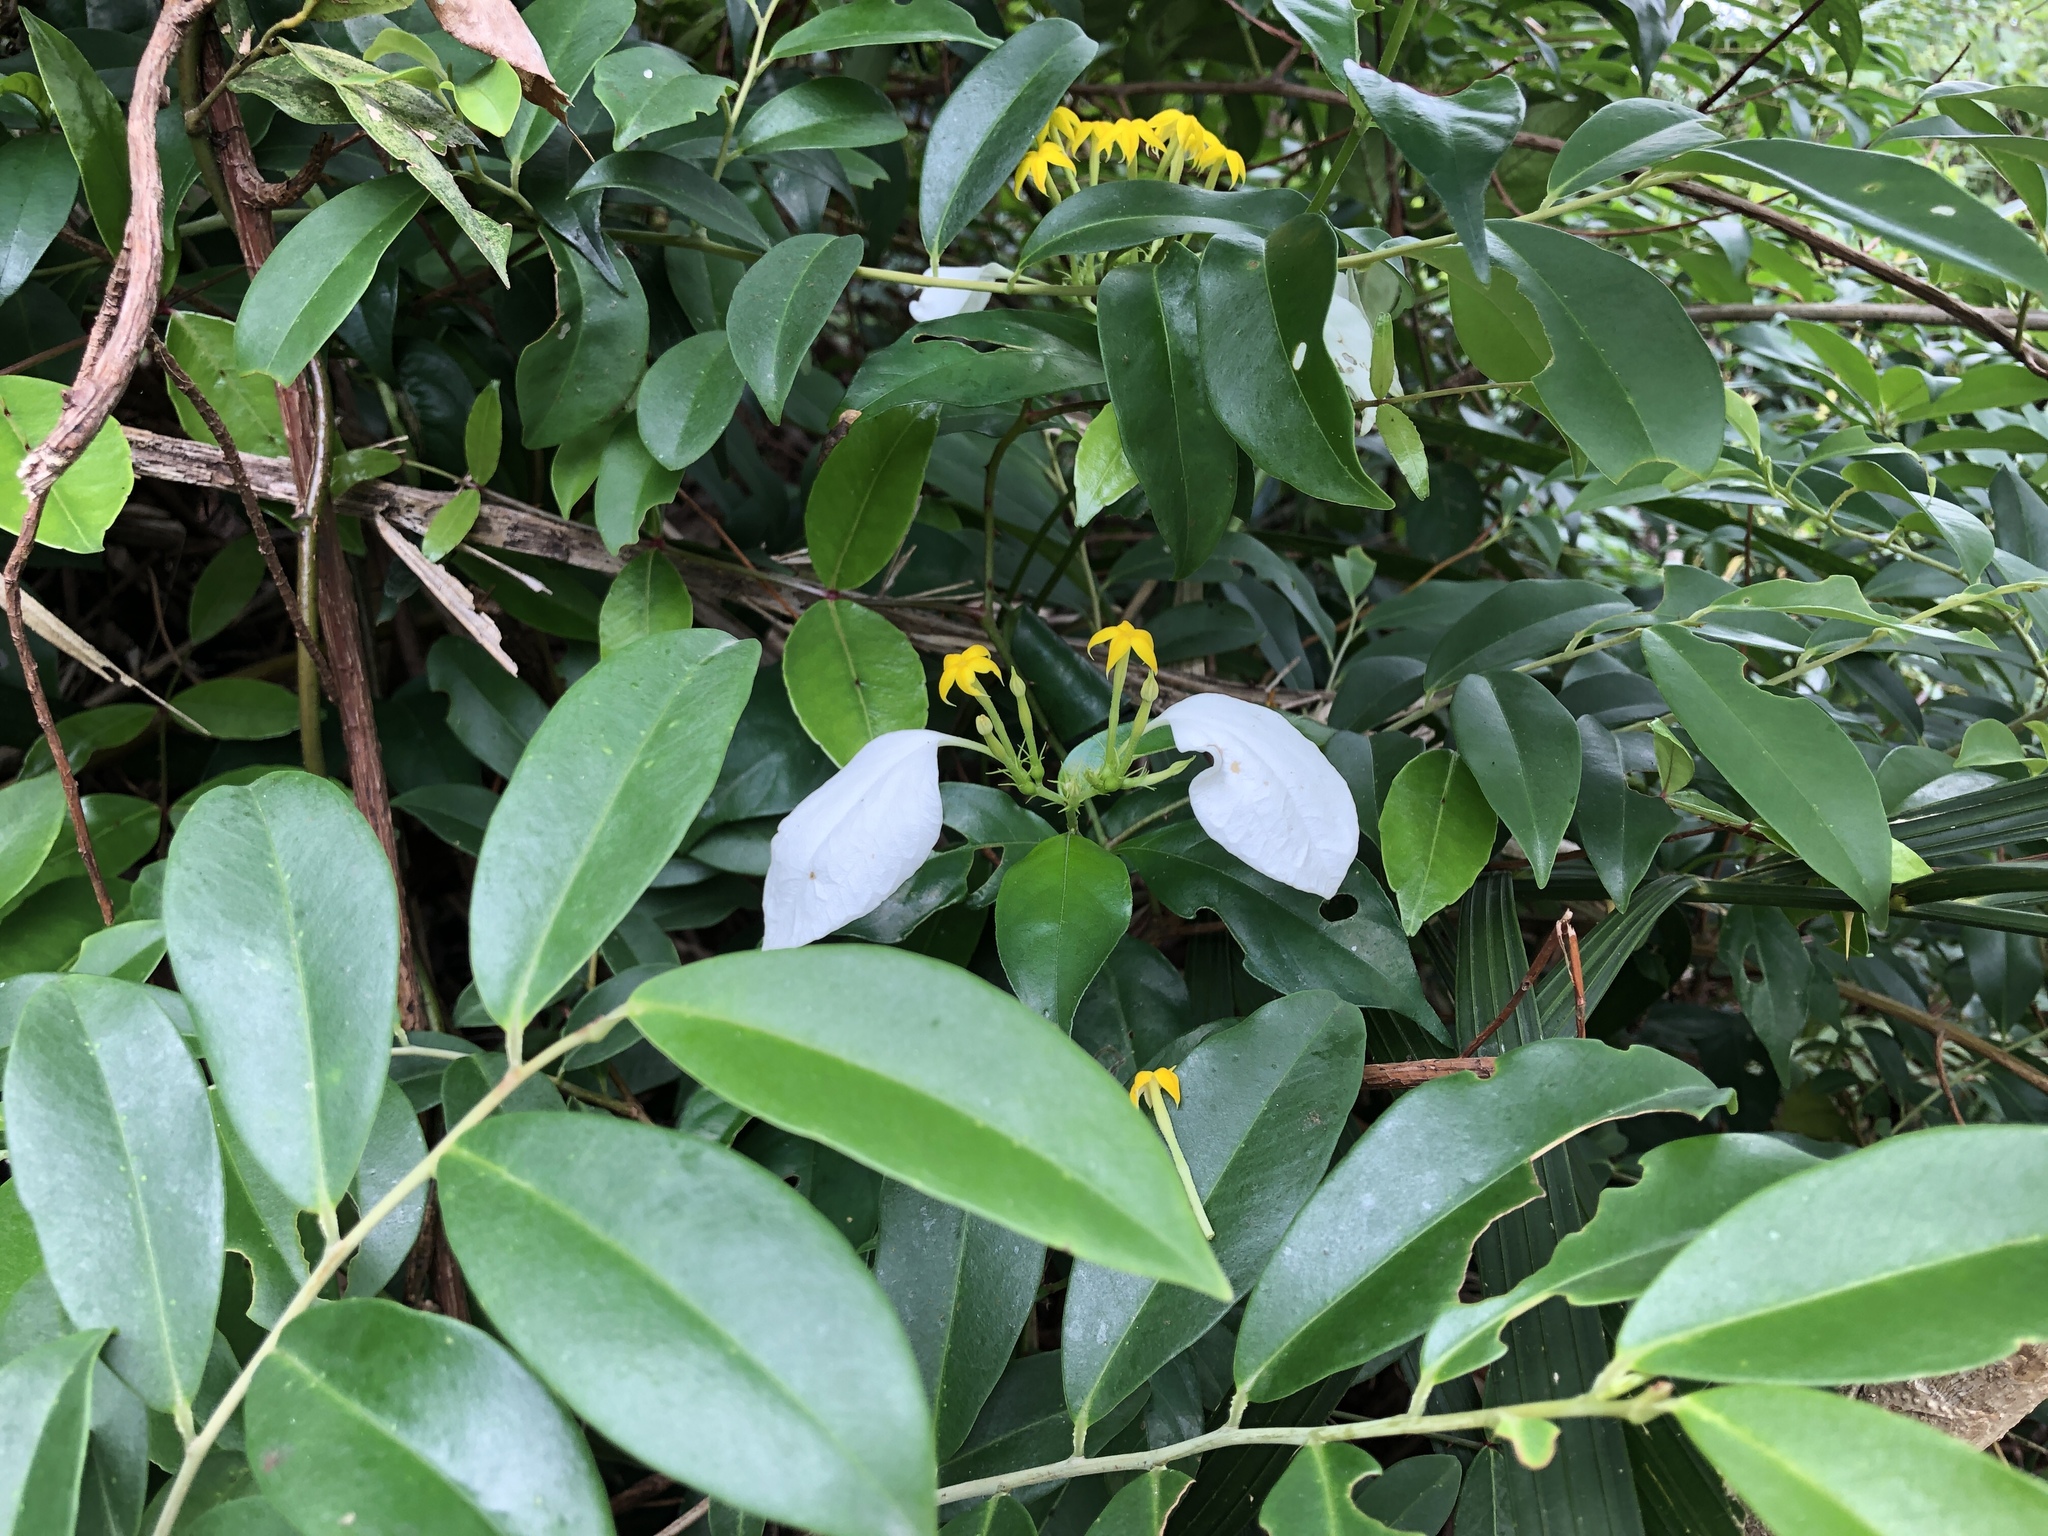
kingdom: Plantae
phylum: Tracheophyta
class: Magnoliopsida
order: Gentianales
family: Rubiaceae
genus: Mussaenda
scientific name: Mussaenda pubescens
